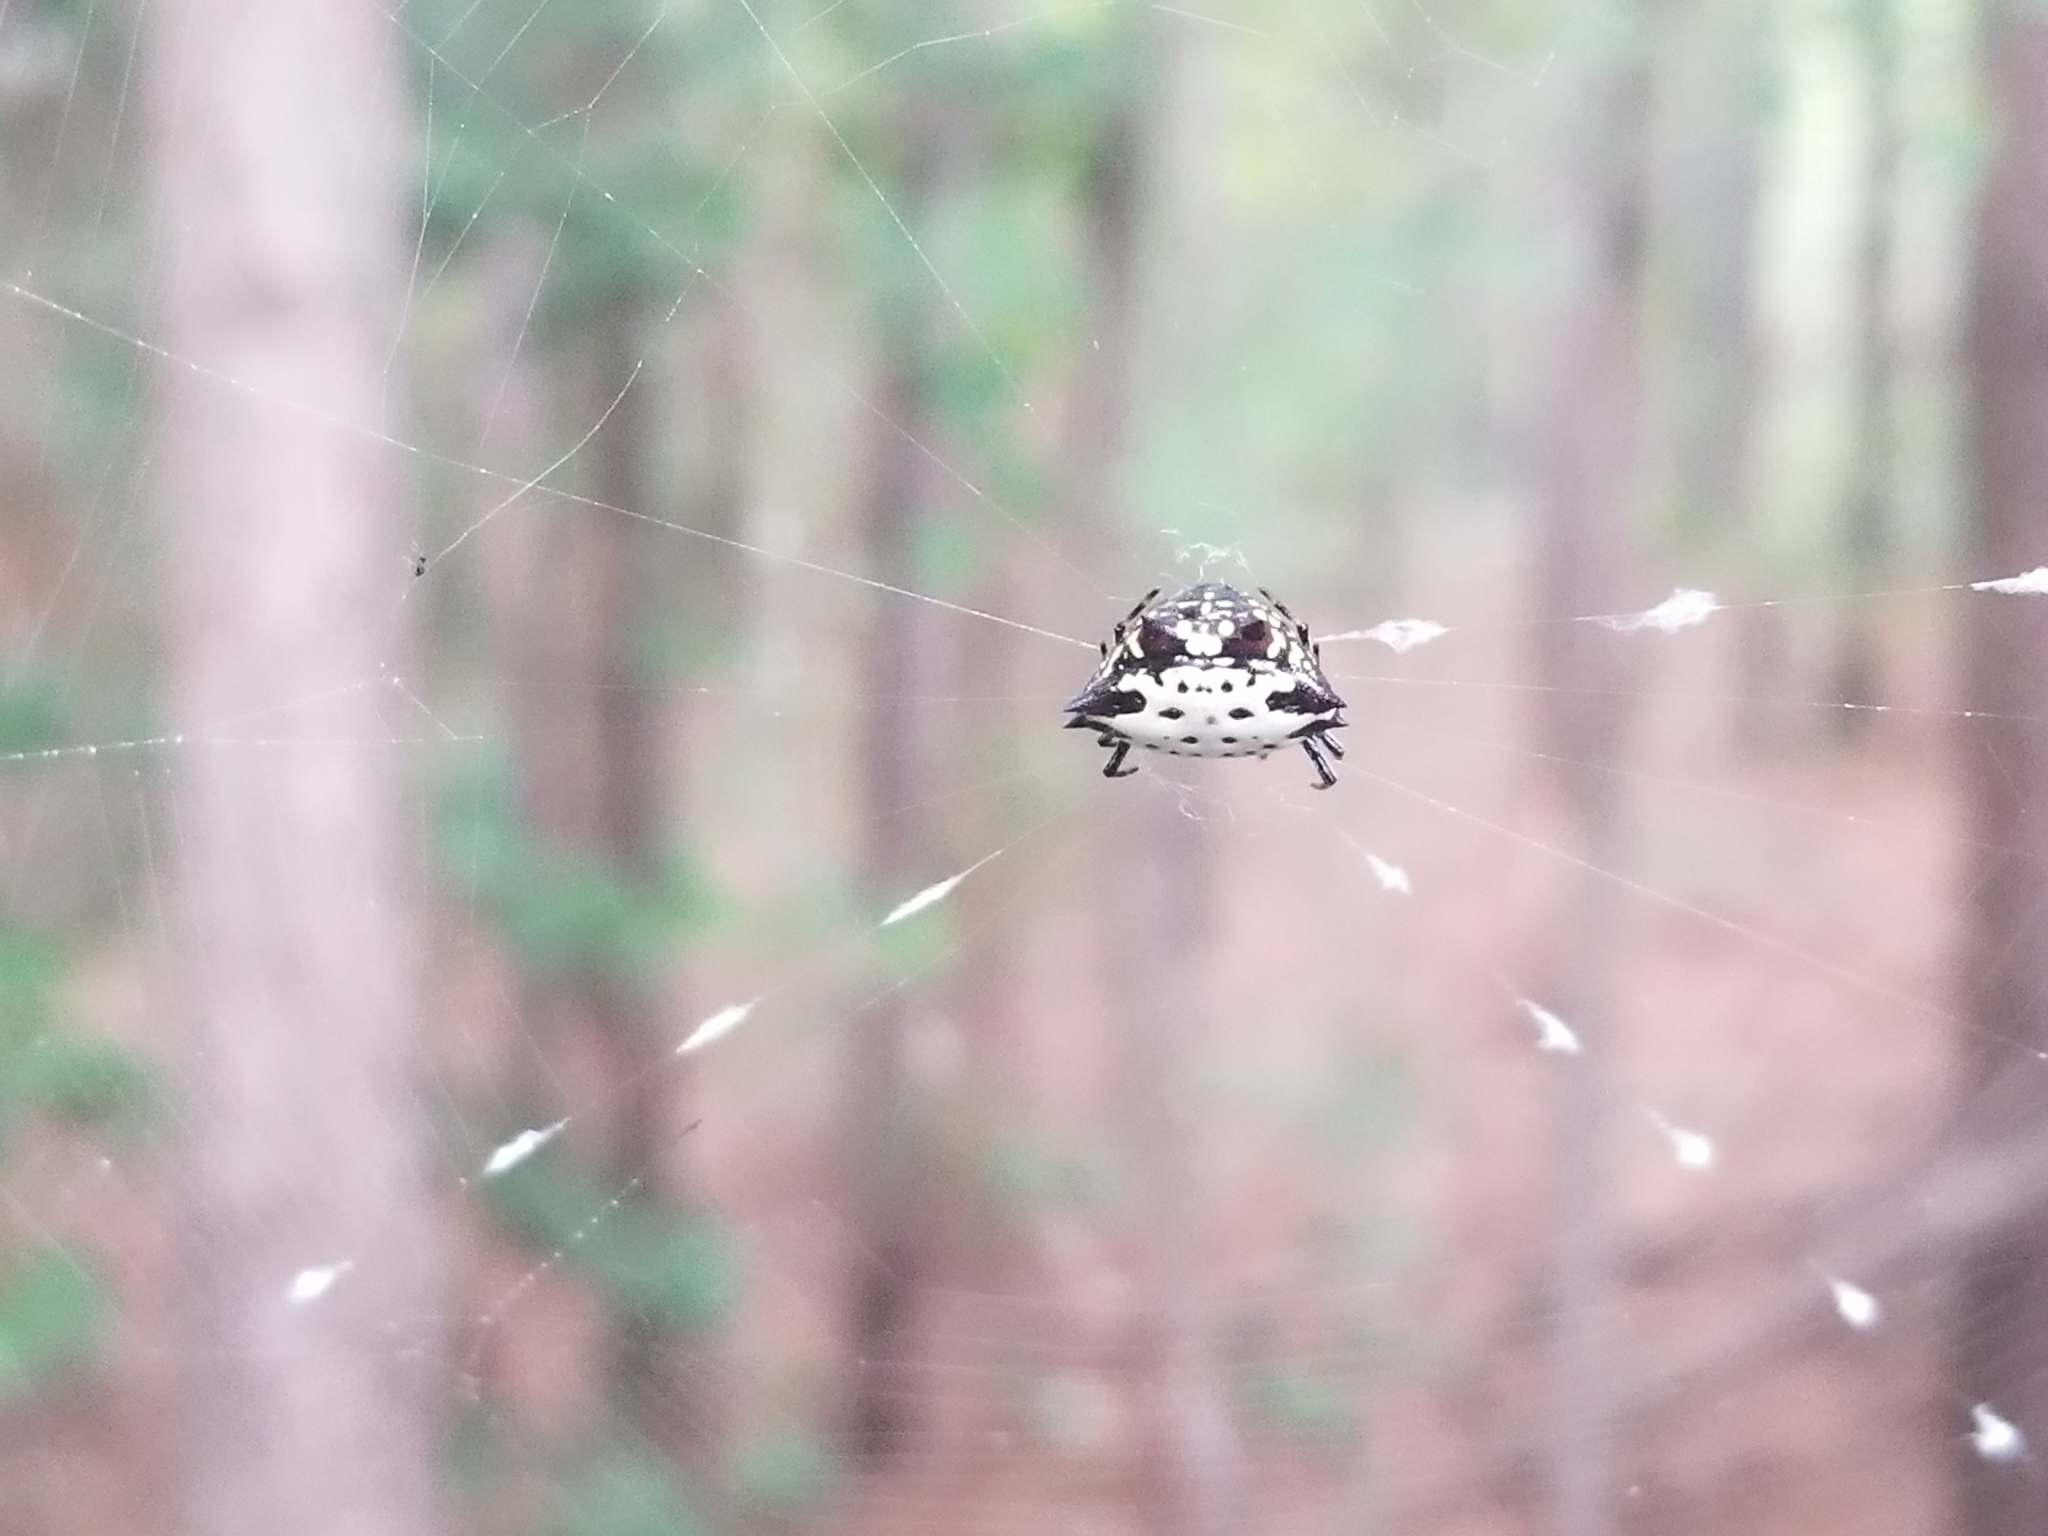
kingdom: Animalia
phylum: Arthropoda
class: Arachnida
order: Araneae
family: Araneidae
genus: Gasteracantha
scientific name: Gasteracantha cancriformis
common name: Orb weavers
